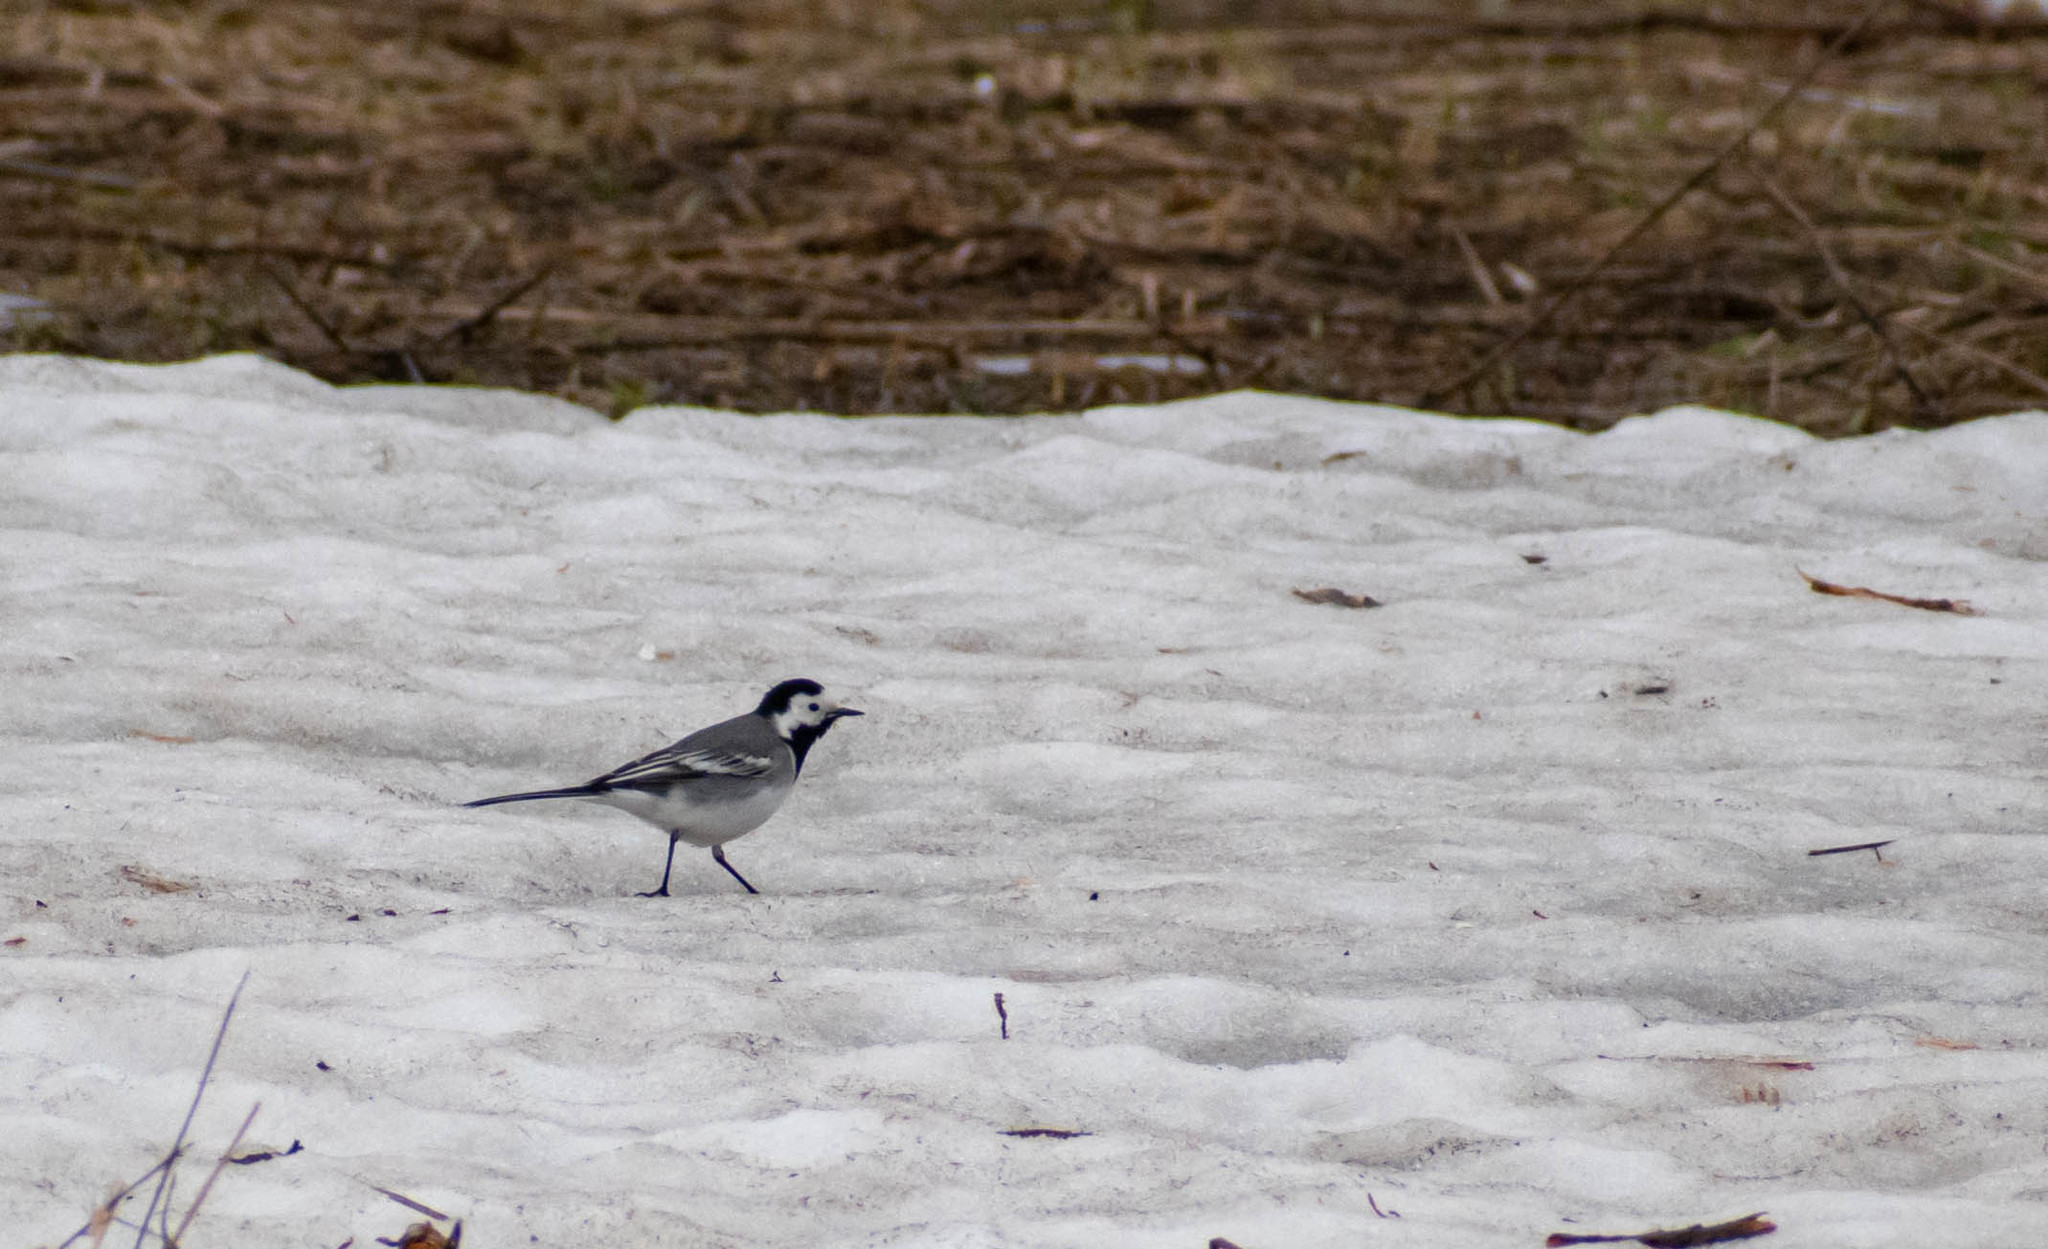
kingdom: Animalia
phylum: Chordata
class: Aves
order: Passeriformes
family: Motacillidae
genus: Motacilla
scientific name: Motacilla alba
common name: White wagtail
